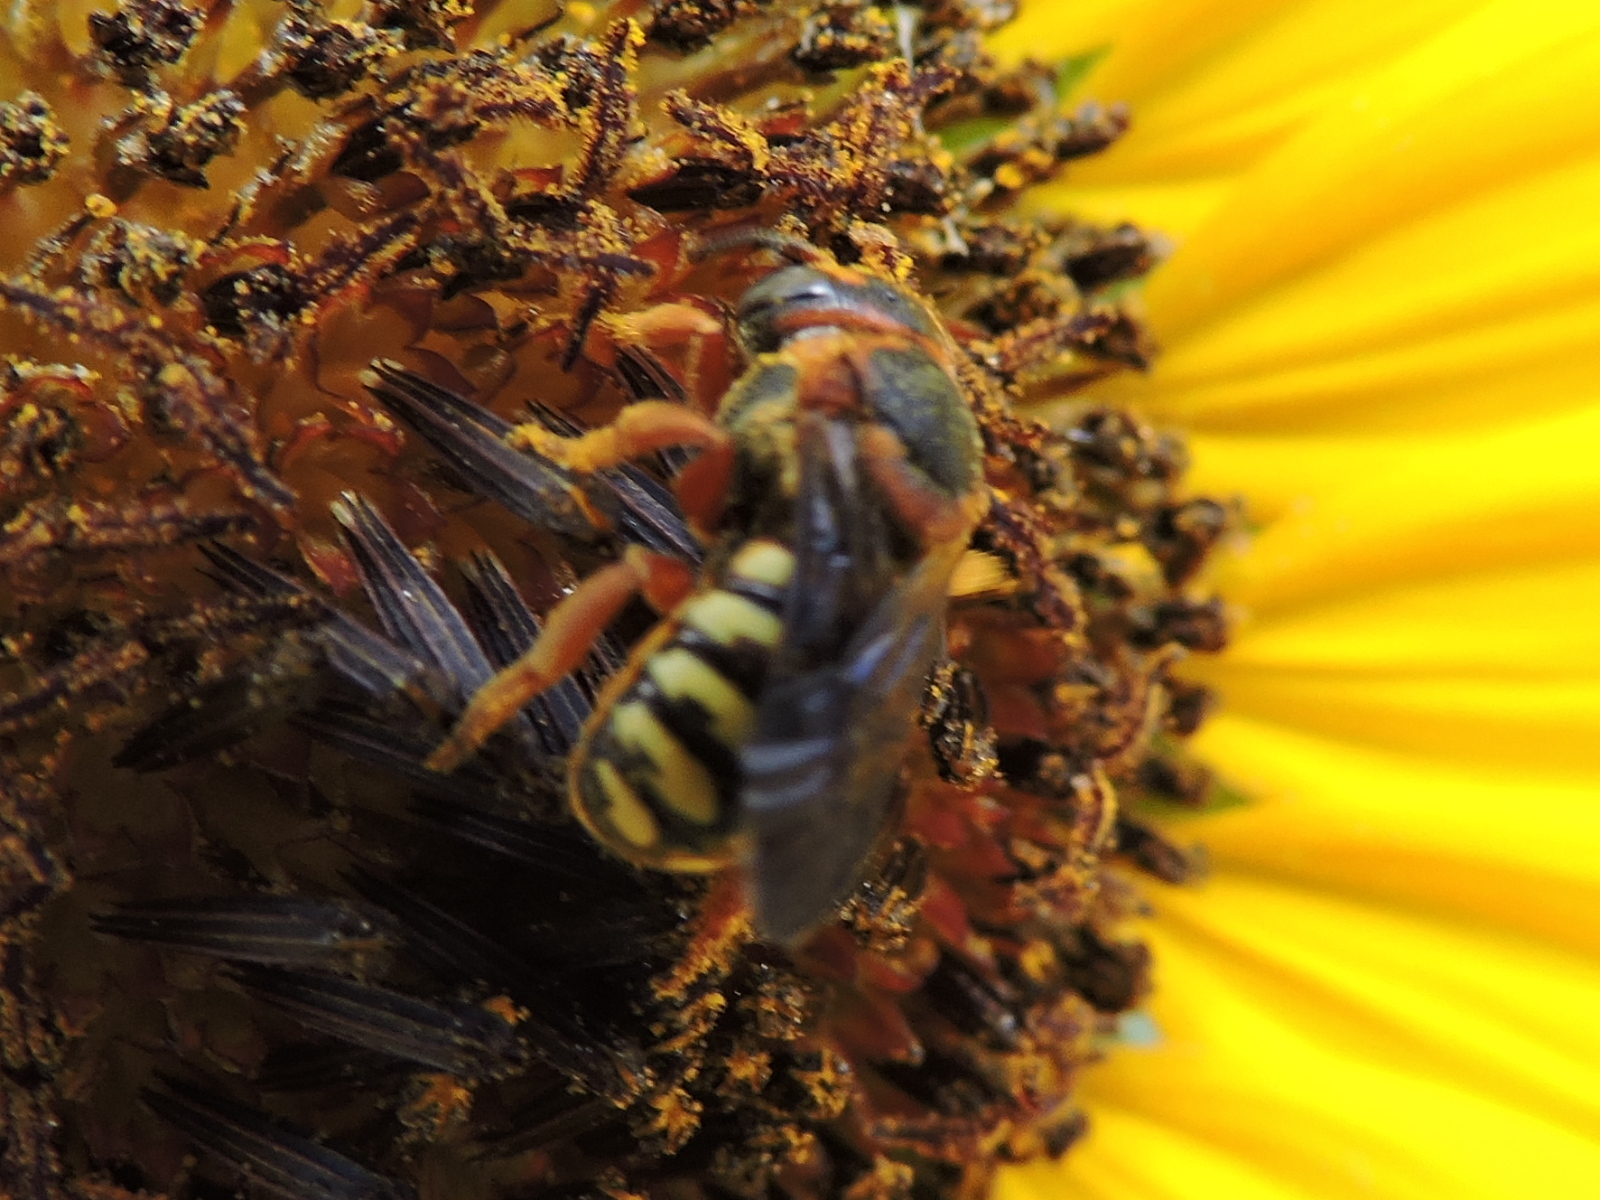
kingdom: Animalia
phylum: Arthropoda
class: Insecta
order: Hymenoptera
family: Megachilidae
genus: Dianthidium
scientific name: Dianthidium
